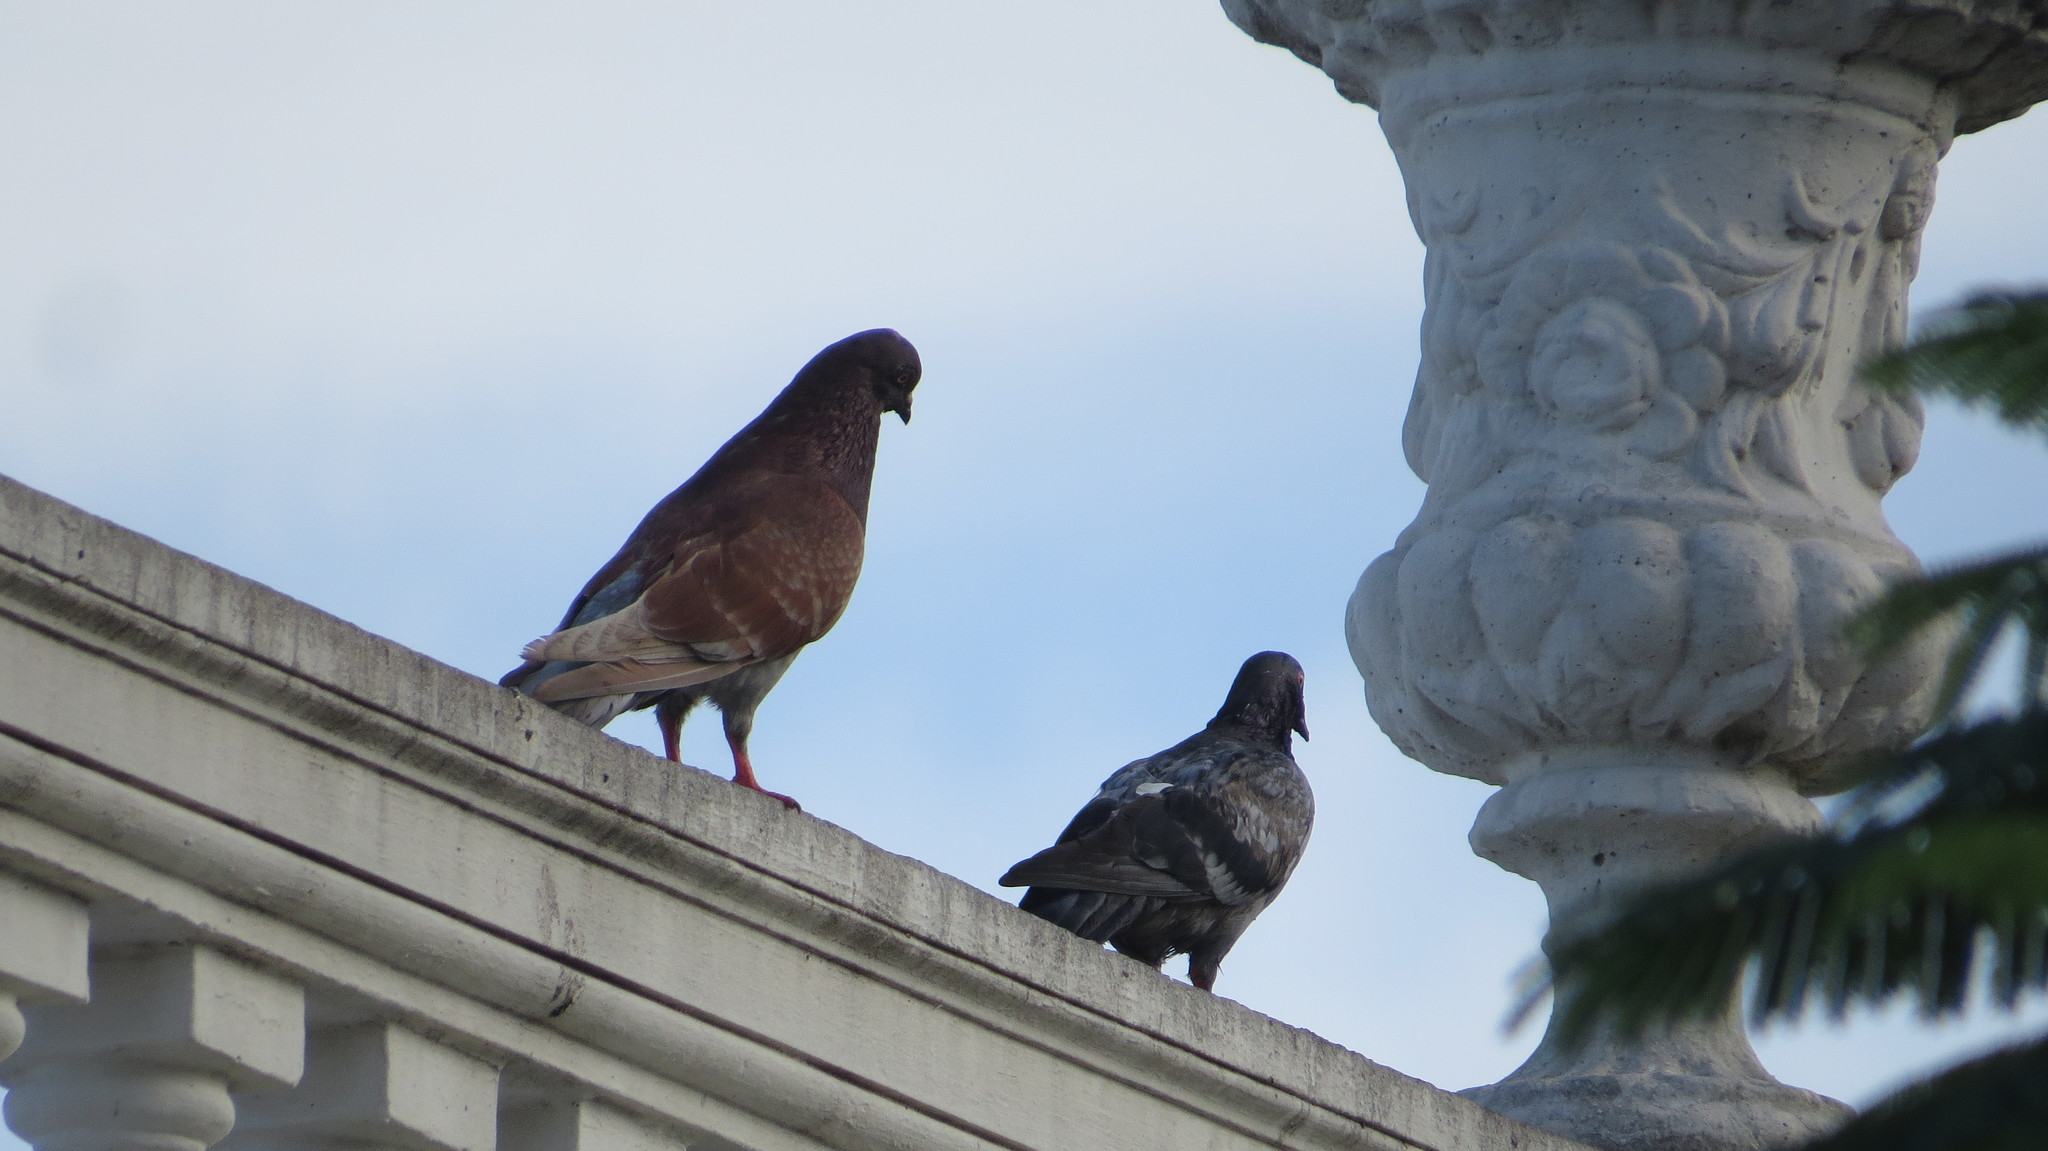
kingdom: Animalia
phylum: Chordata
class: Aves
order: Columbiformes
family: Columbidae
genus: Columba
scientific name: Columba livia
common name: Rock pigeon
